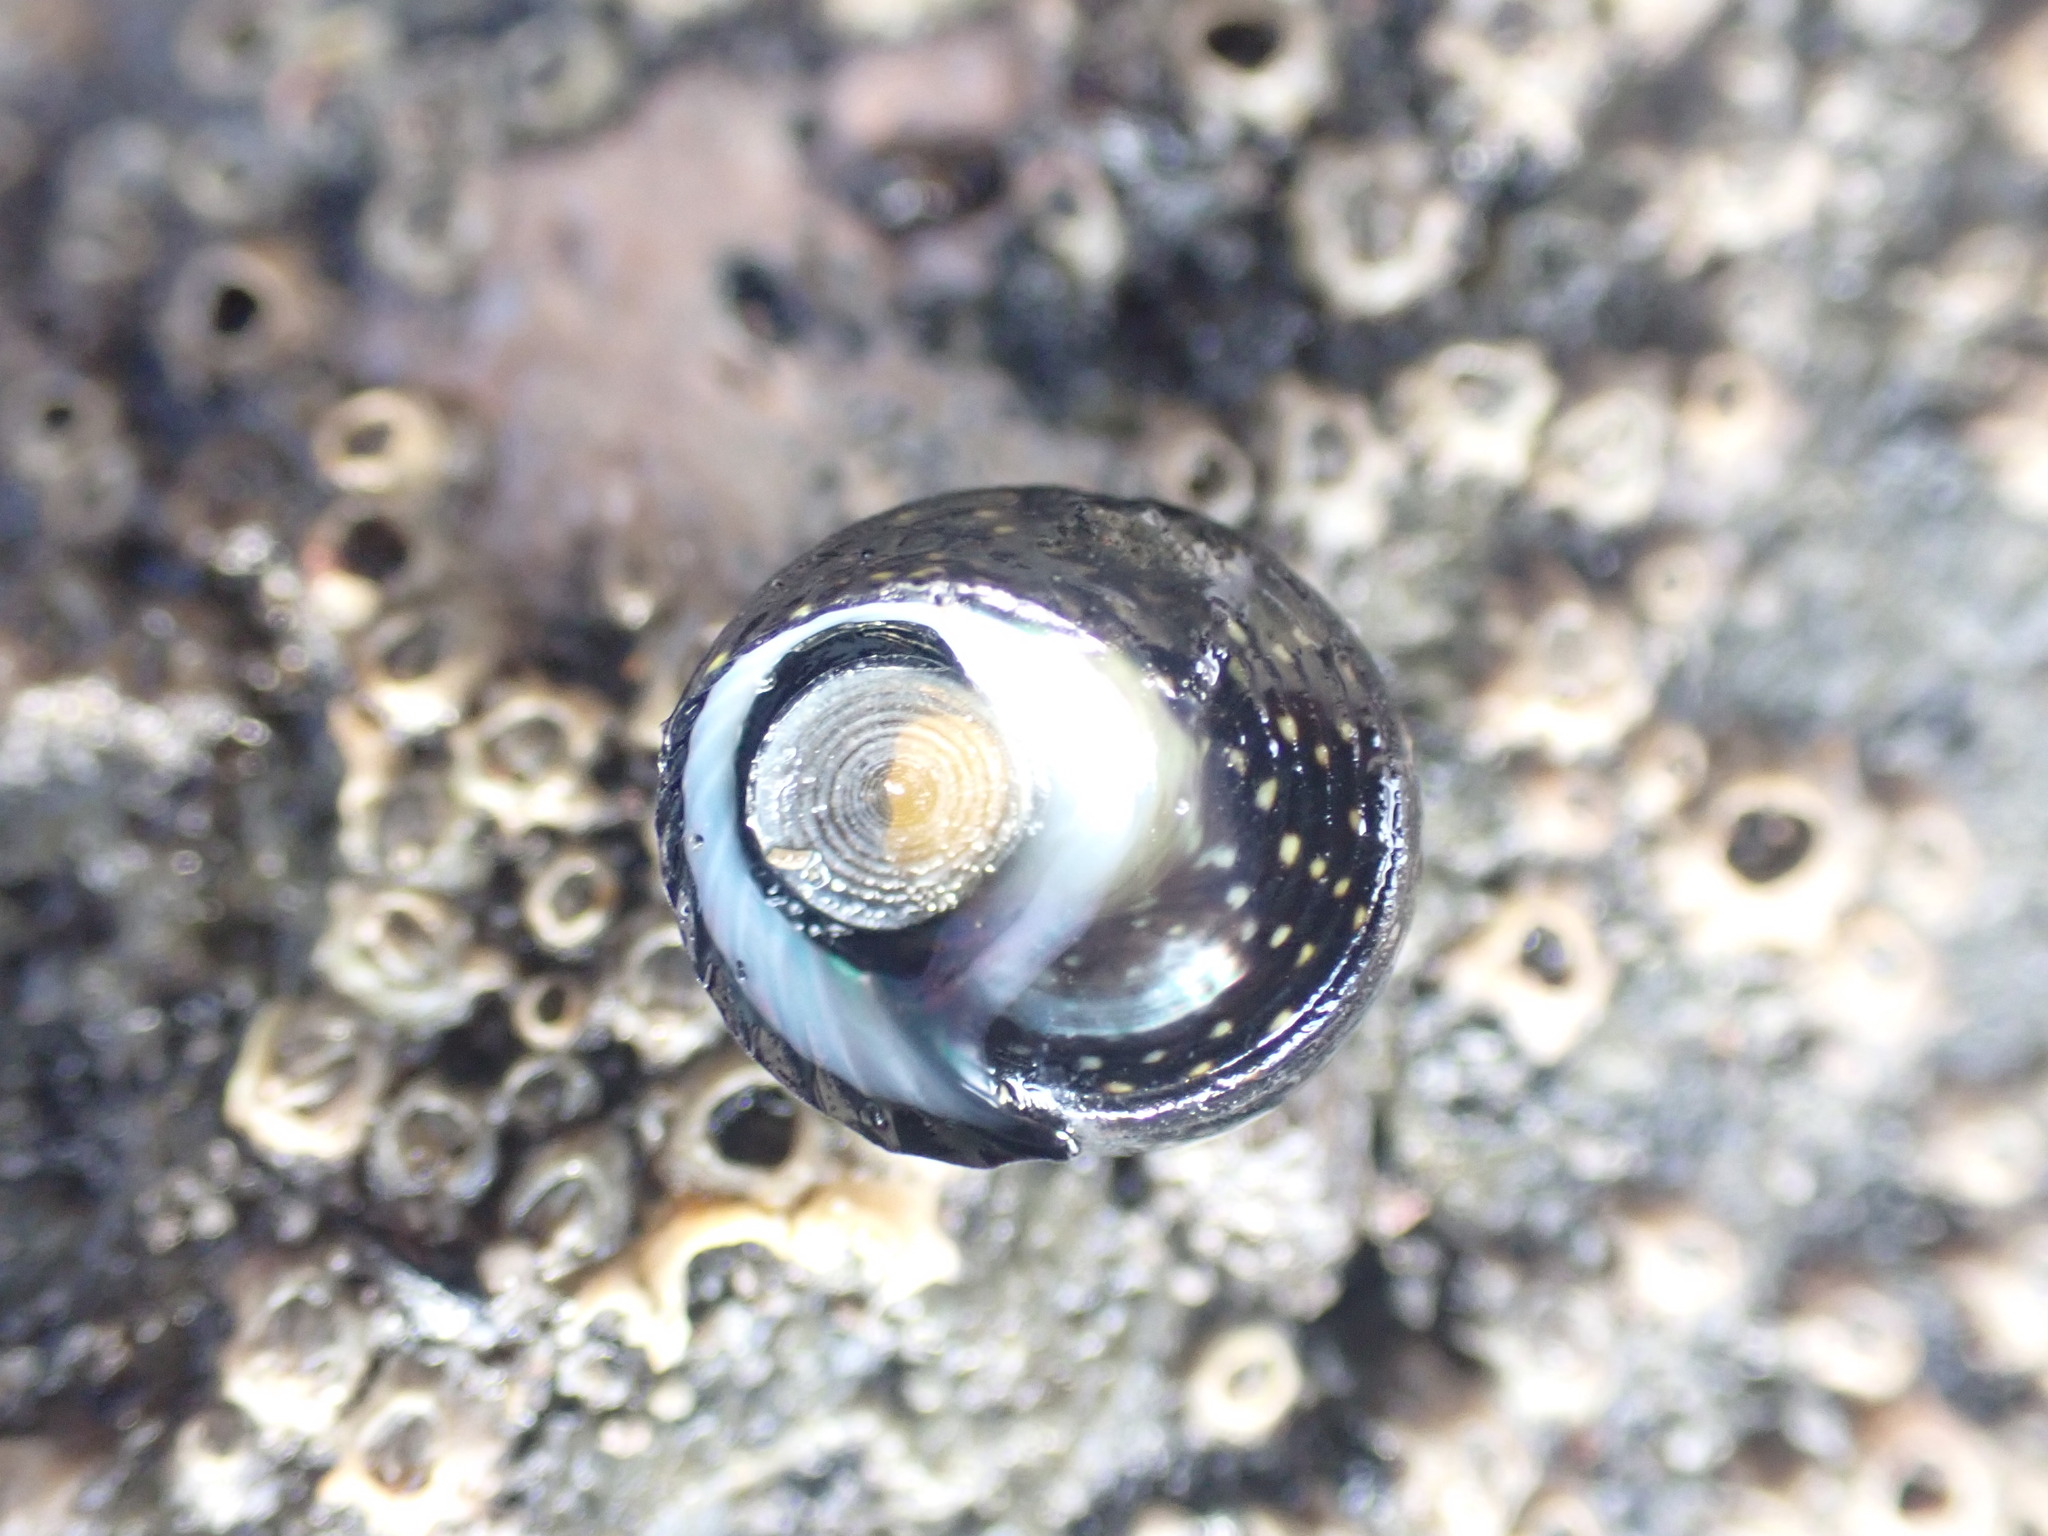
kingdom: Animalia
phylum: Mollusca
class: Gastropoda
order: Trochida
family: Trochidae
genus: Diloma
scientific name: Diloma aridum
